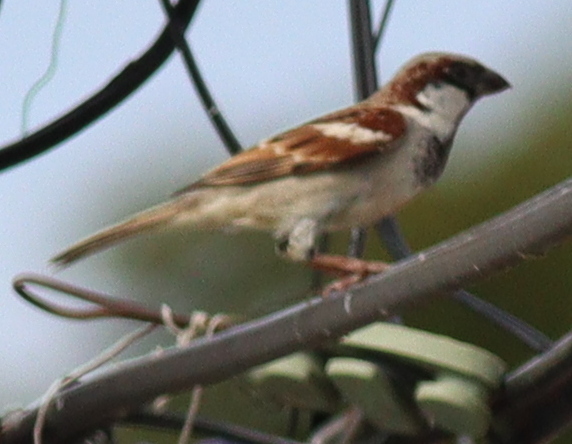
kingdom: Animalia
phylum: Chordata
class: Aves
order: Passeriformes
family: Passeridae
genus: Passer
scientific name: Passer domesticus
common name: House sparrow
